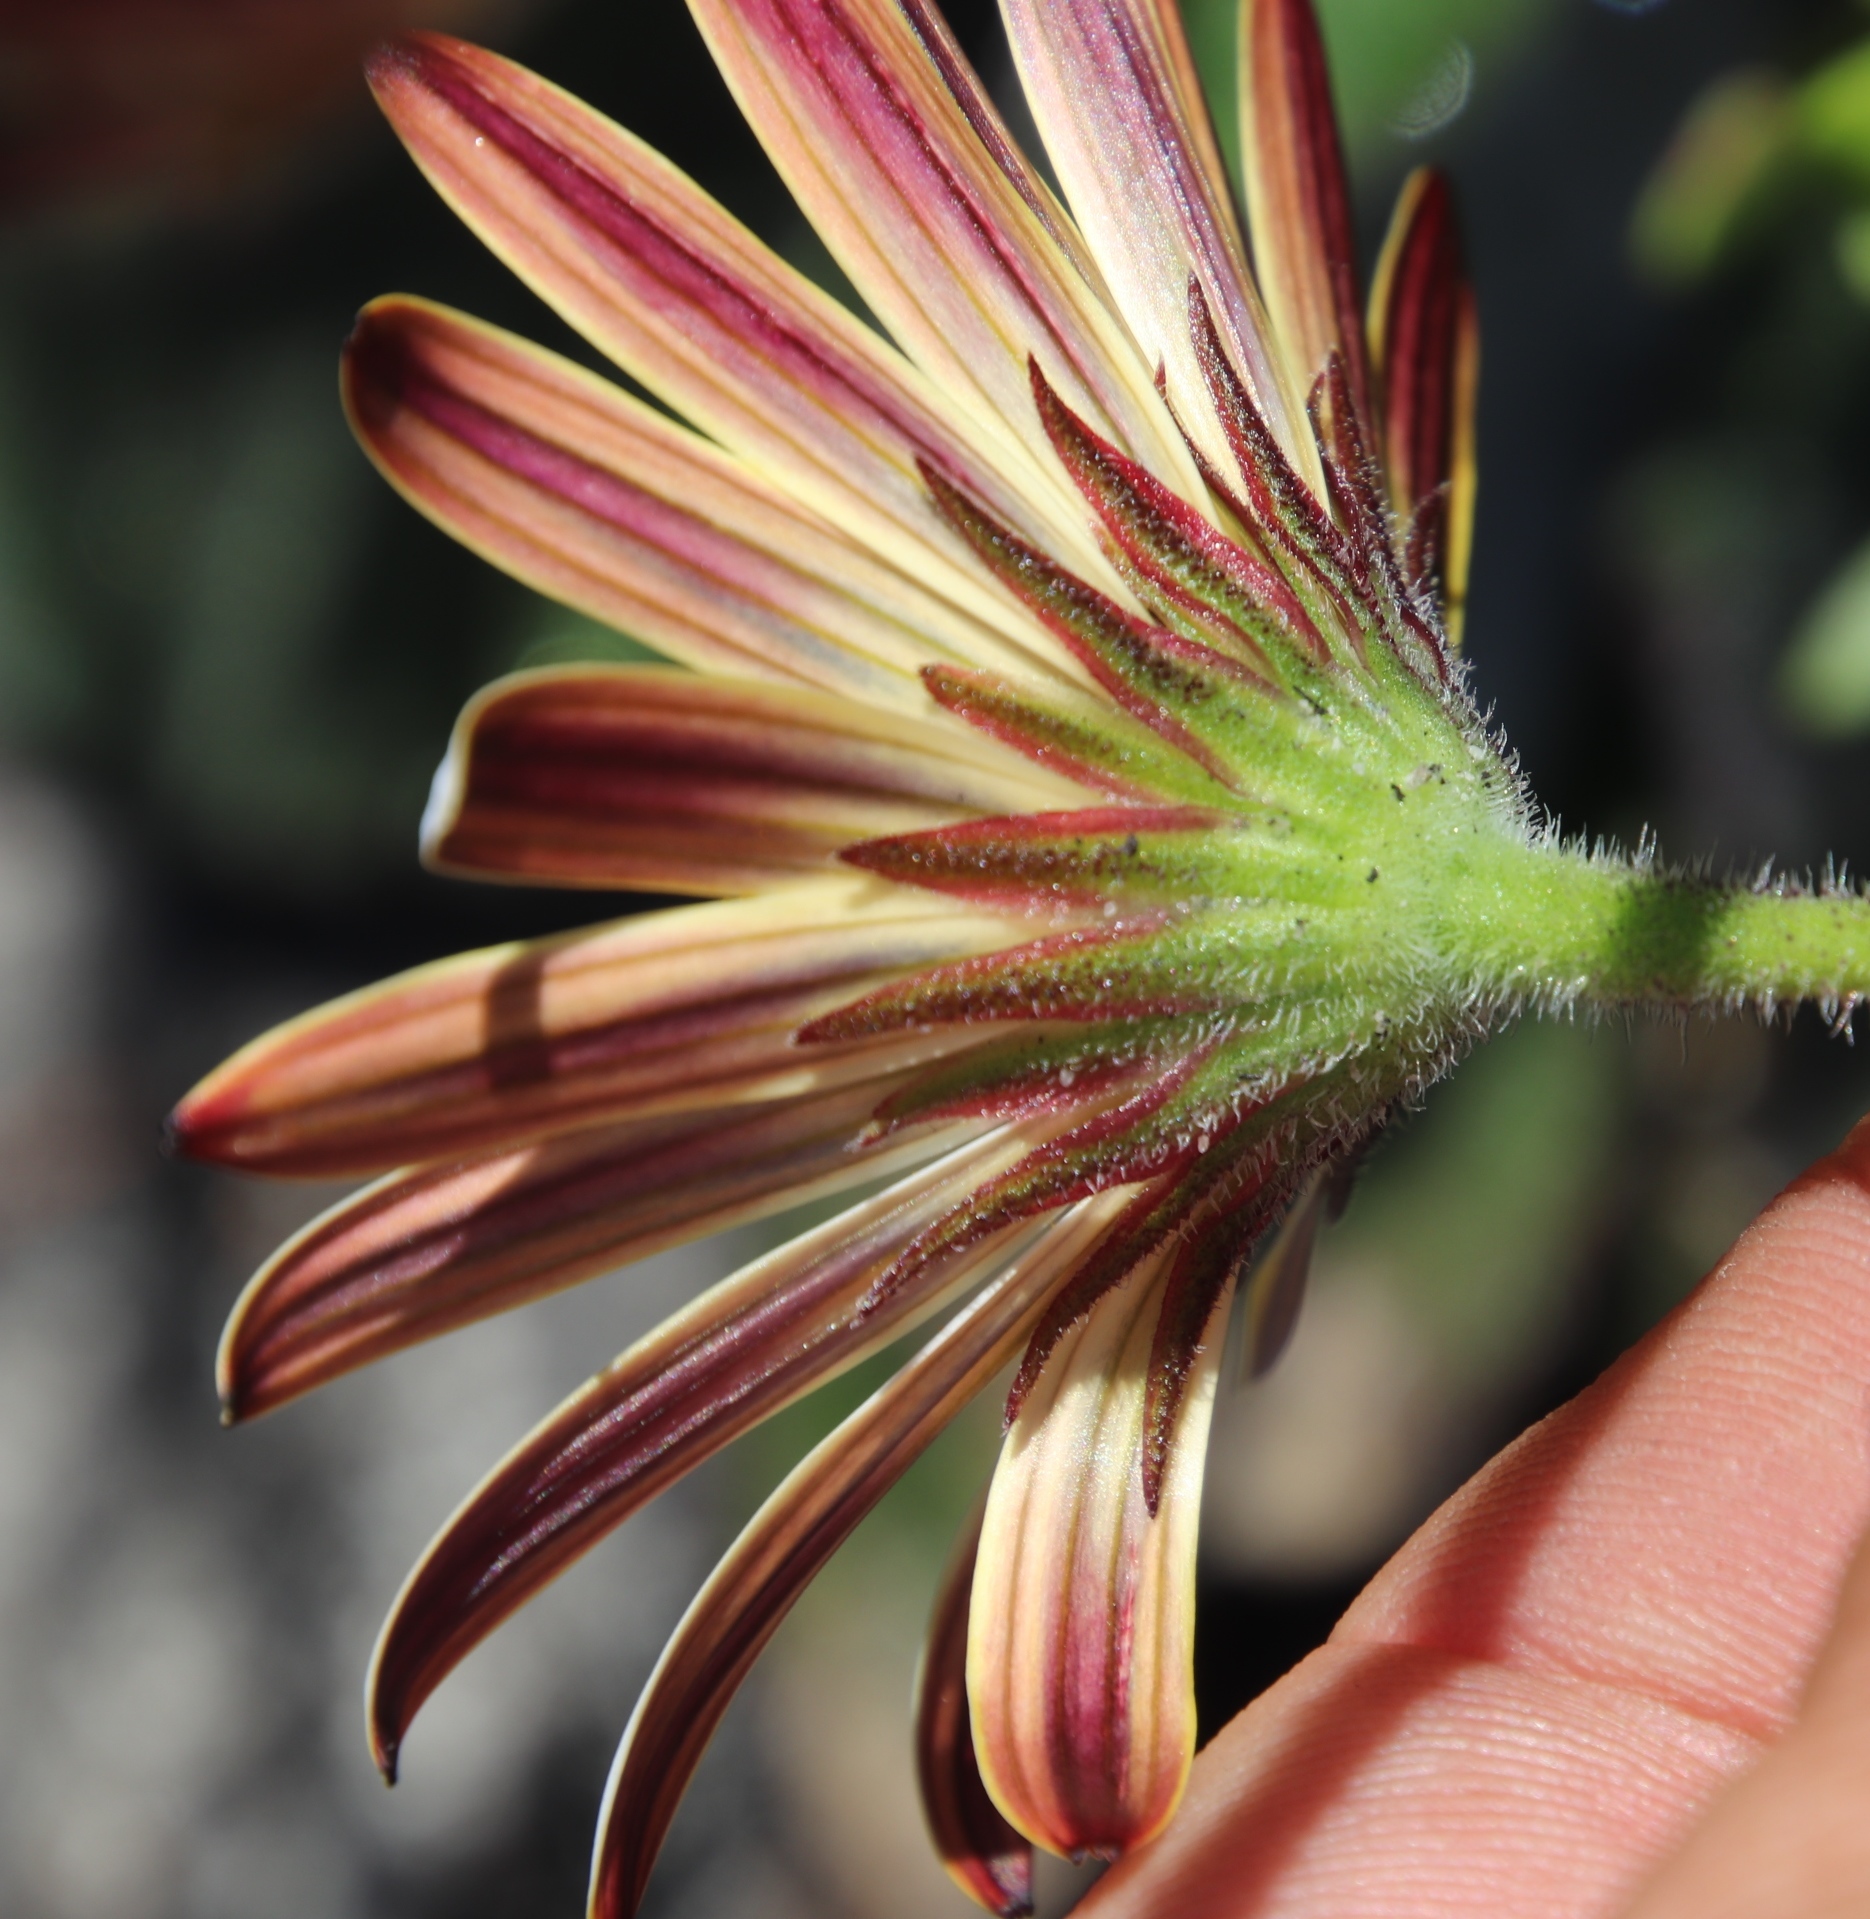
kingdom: Plantae
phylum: Tracheophyta
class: Magnoliopsida
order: Asterales
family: Asteraceae
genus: Dimorphotheca
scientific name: Dimorphotheca nudicaulis
